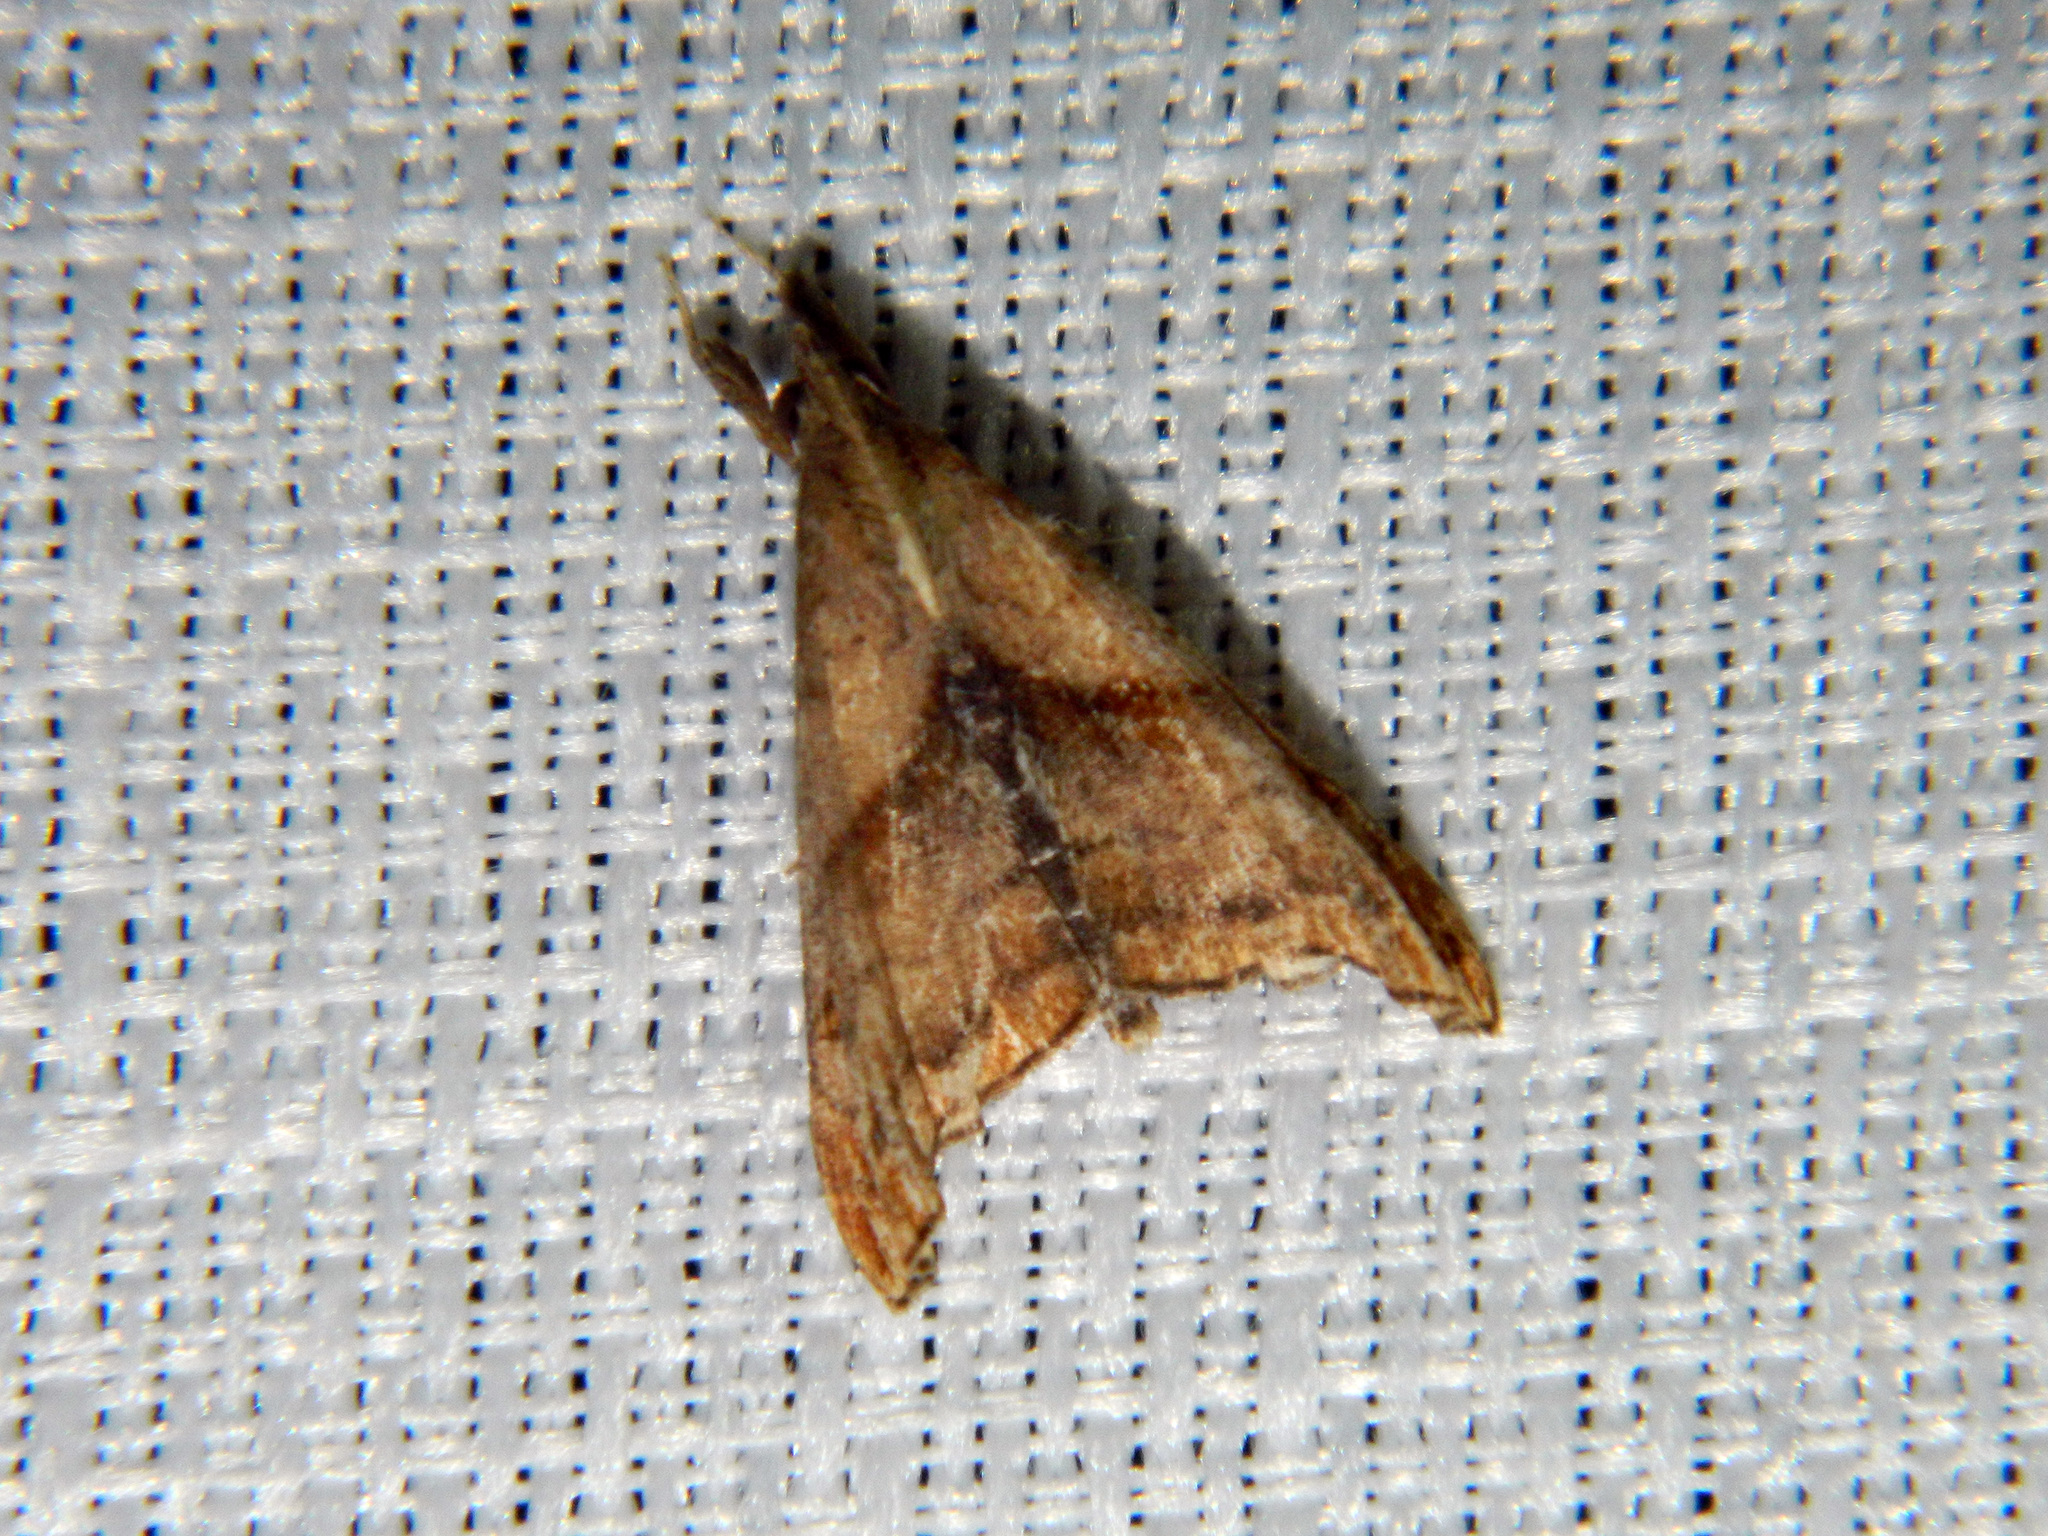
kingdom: Animalia
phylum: Arthropoda
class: Insecta
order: Lepidoptera
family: Erebidae
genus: Palthis
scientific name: Palthis angulalis
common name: Dark-spotted palthis moth
